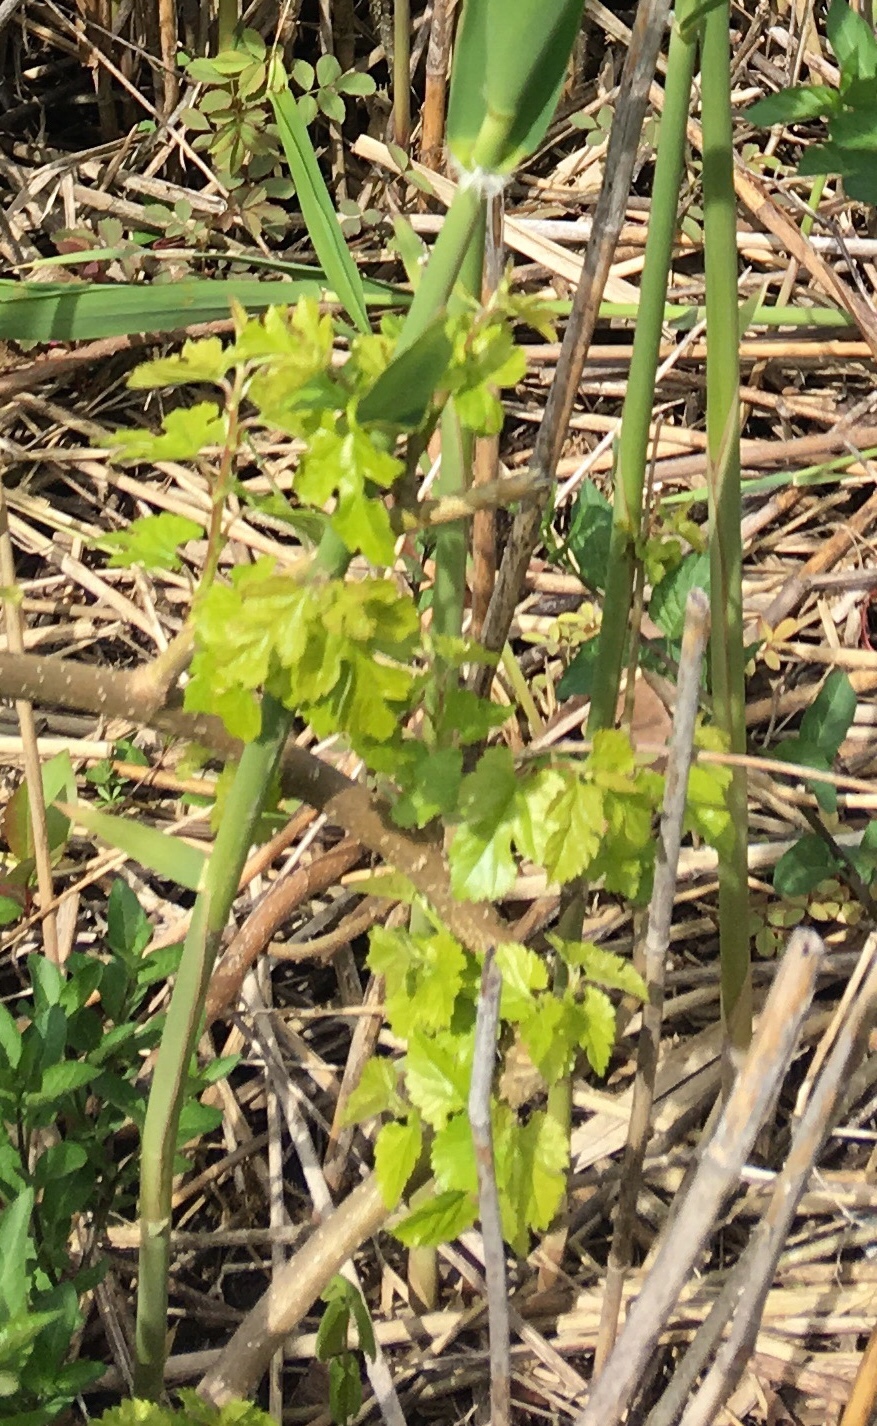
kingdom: Plantae
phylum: Tracheophyta
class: Magnoliopsida
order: Rosales
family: Moraceae
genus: Morus
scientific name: Morus alba
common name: White mulberry
